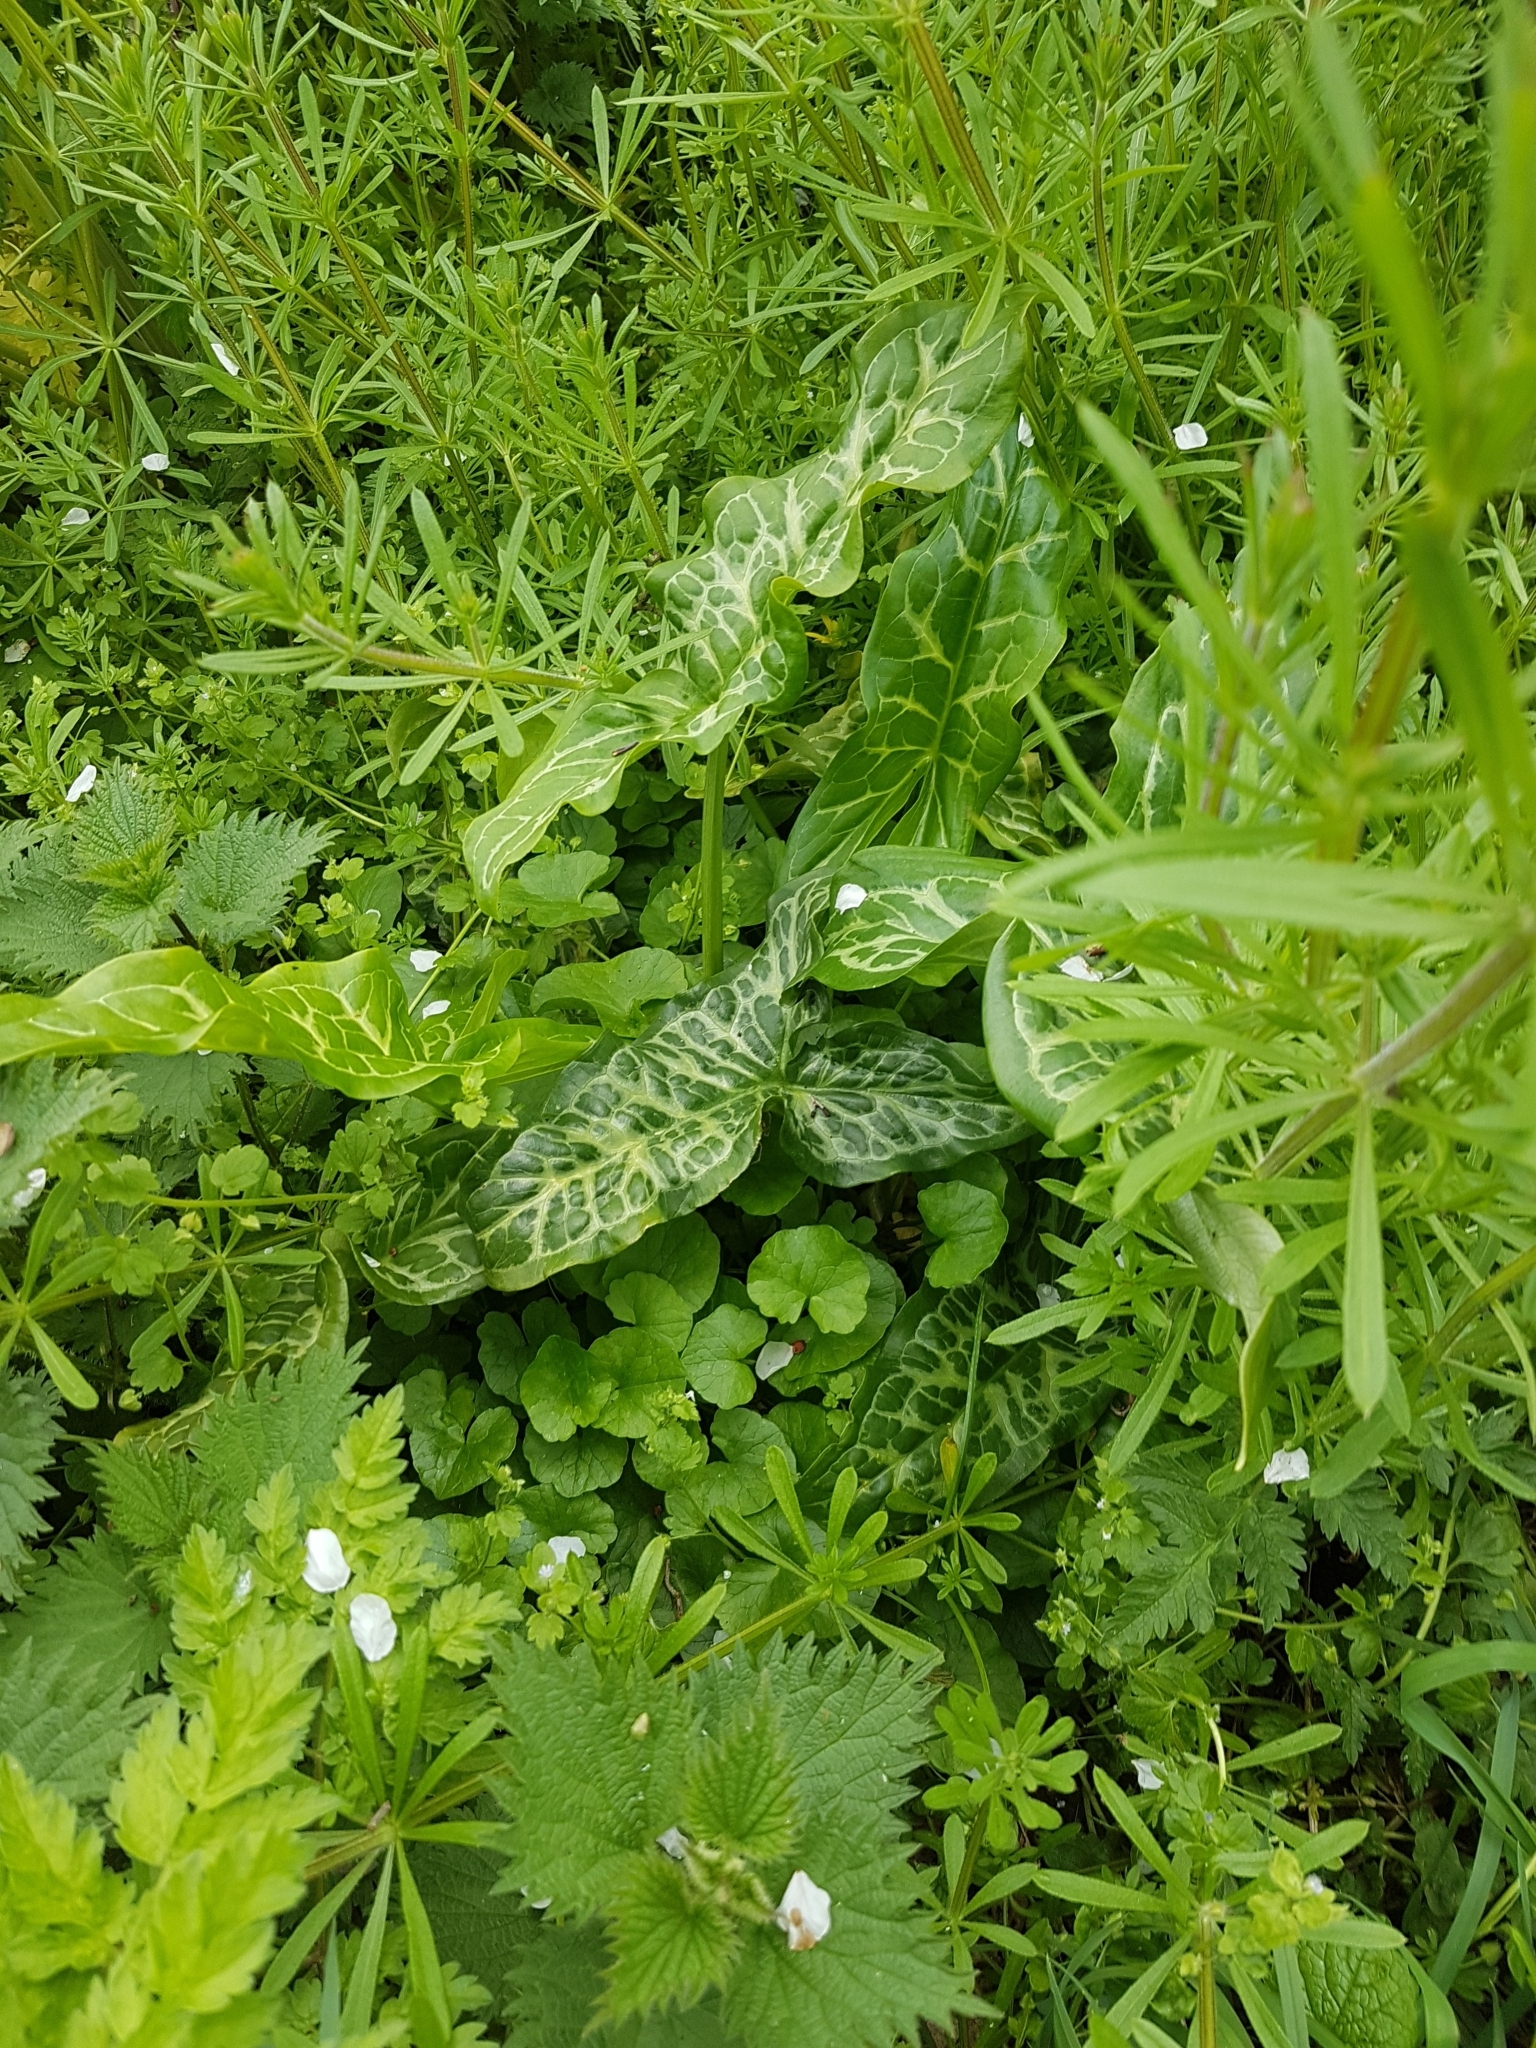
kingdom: Plantae
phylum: Tracheophyta
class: Liliopsida
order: Alismatales
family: Araceae
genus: Arum
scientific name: Arum italicum
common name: Italian lords-and-ladies
